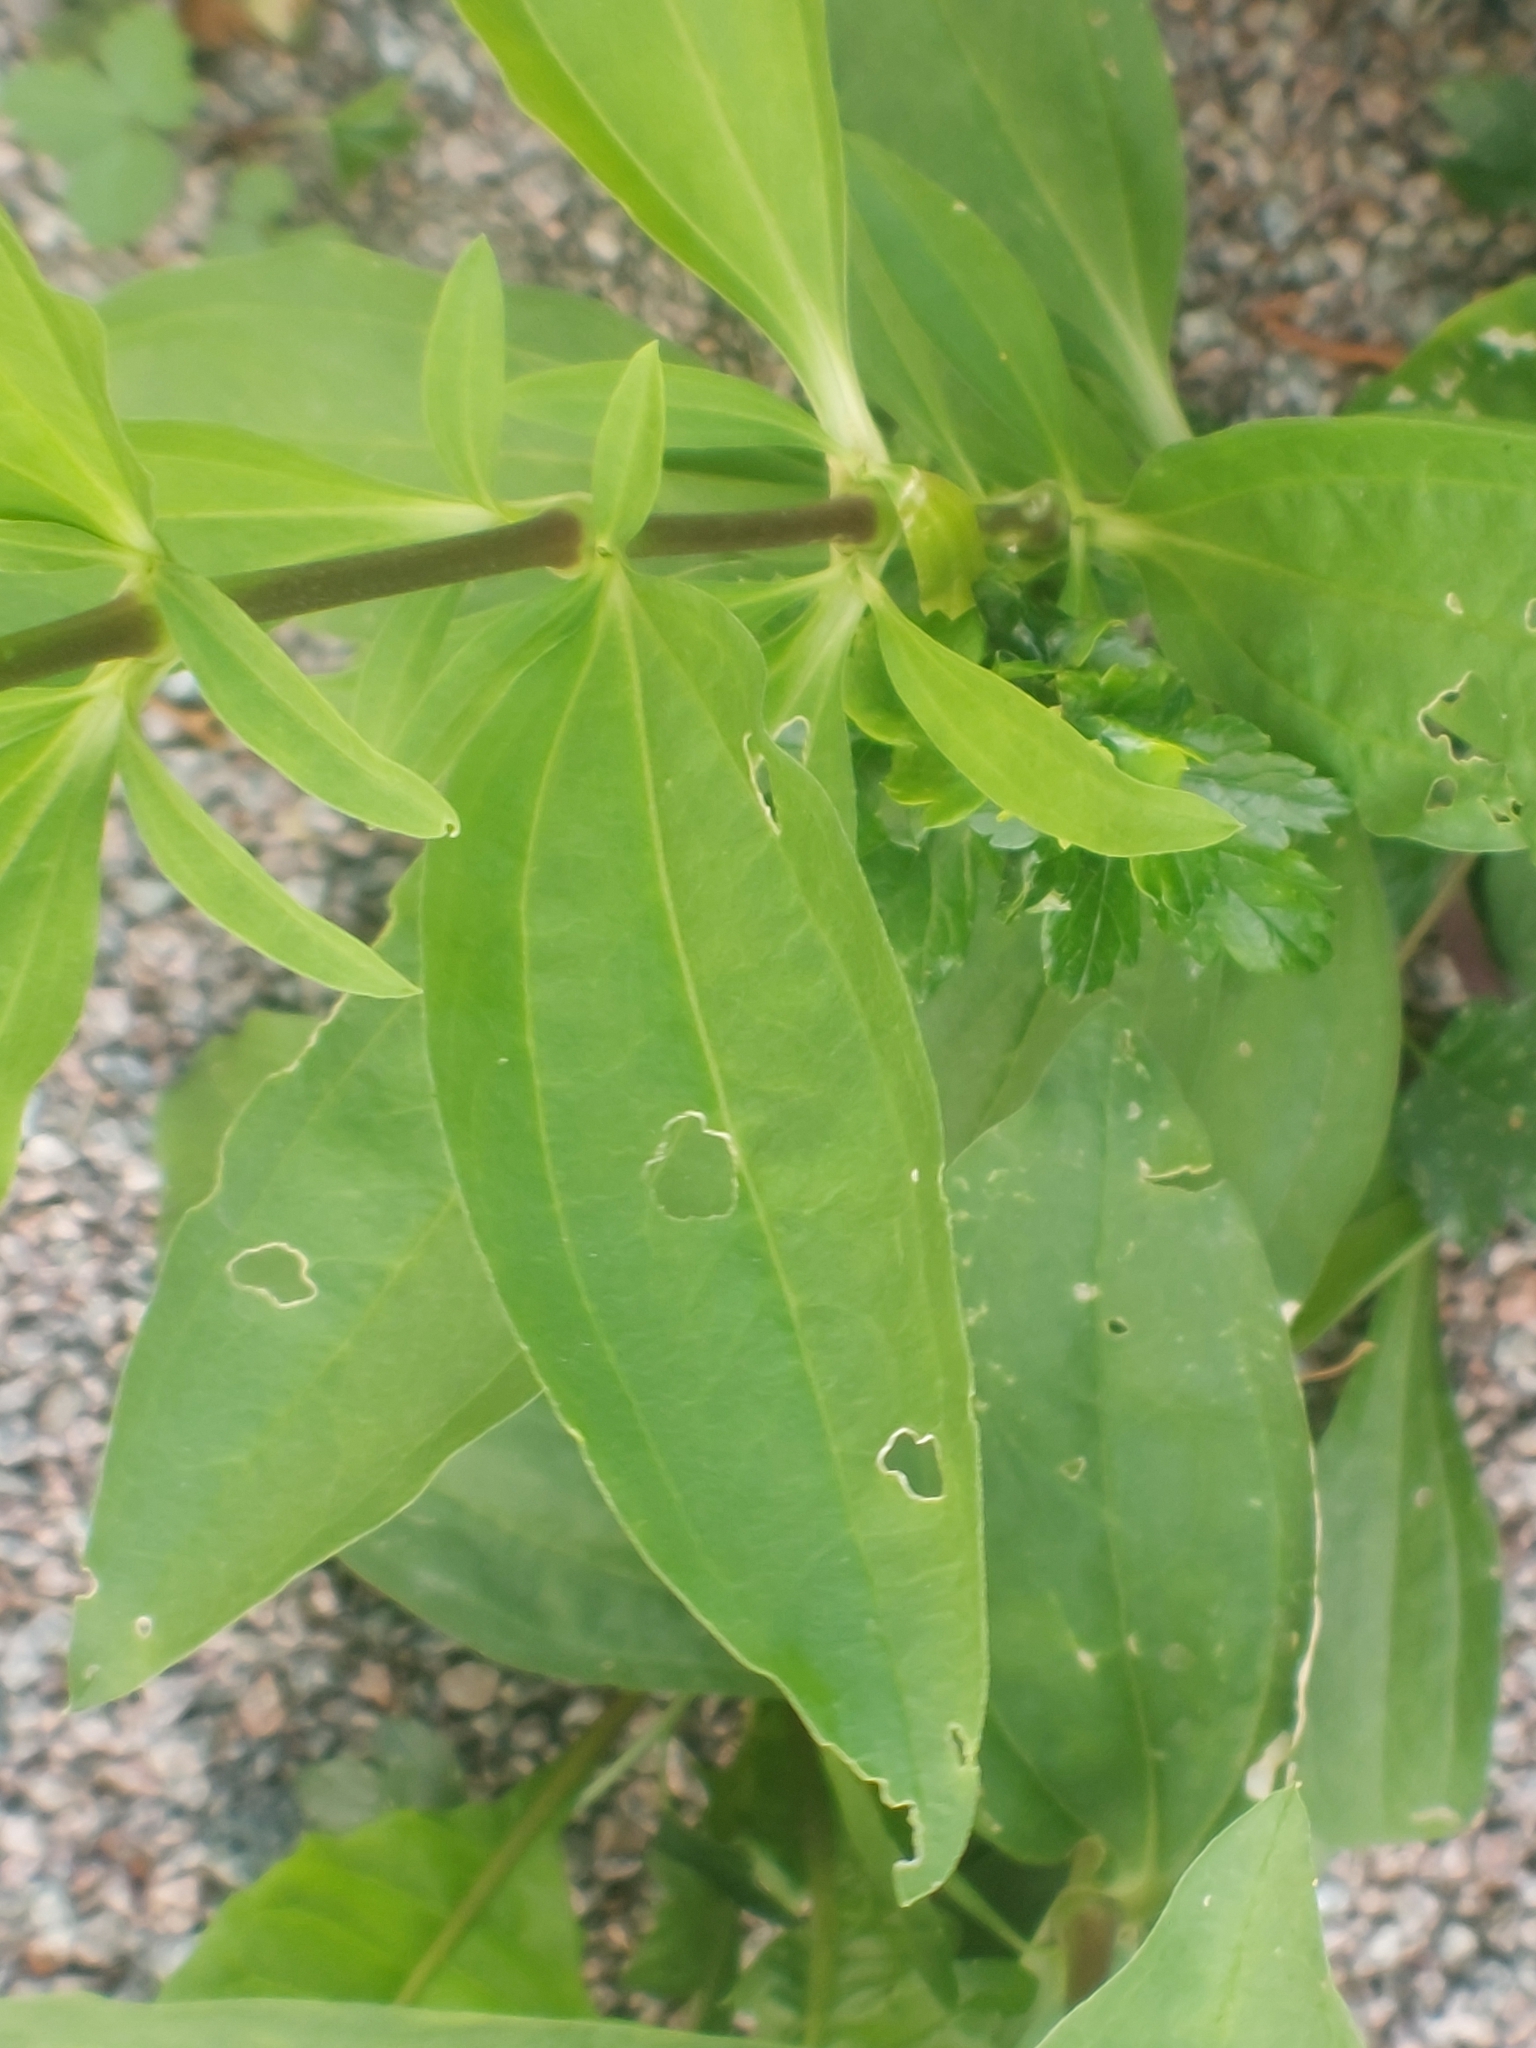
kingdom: Plantae
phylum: Tracheophyta
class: Magnoliopsida
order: Caryophyllales
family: Caryophyllaceae
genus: Saponaria
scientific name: Saponaria officinalis
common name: Soapwort
